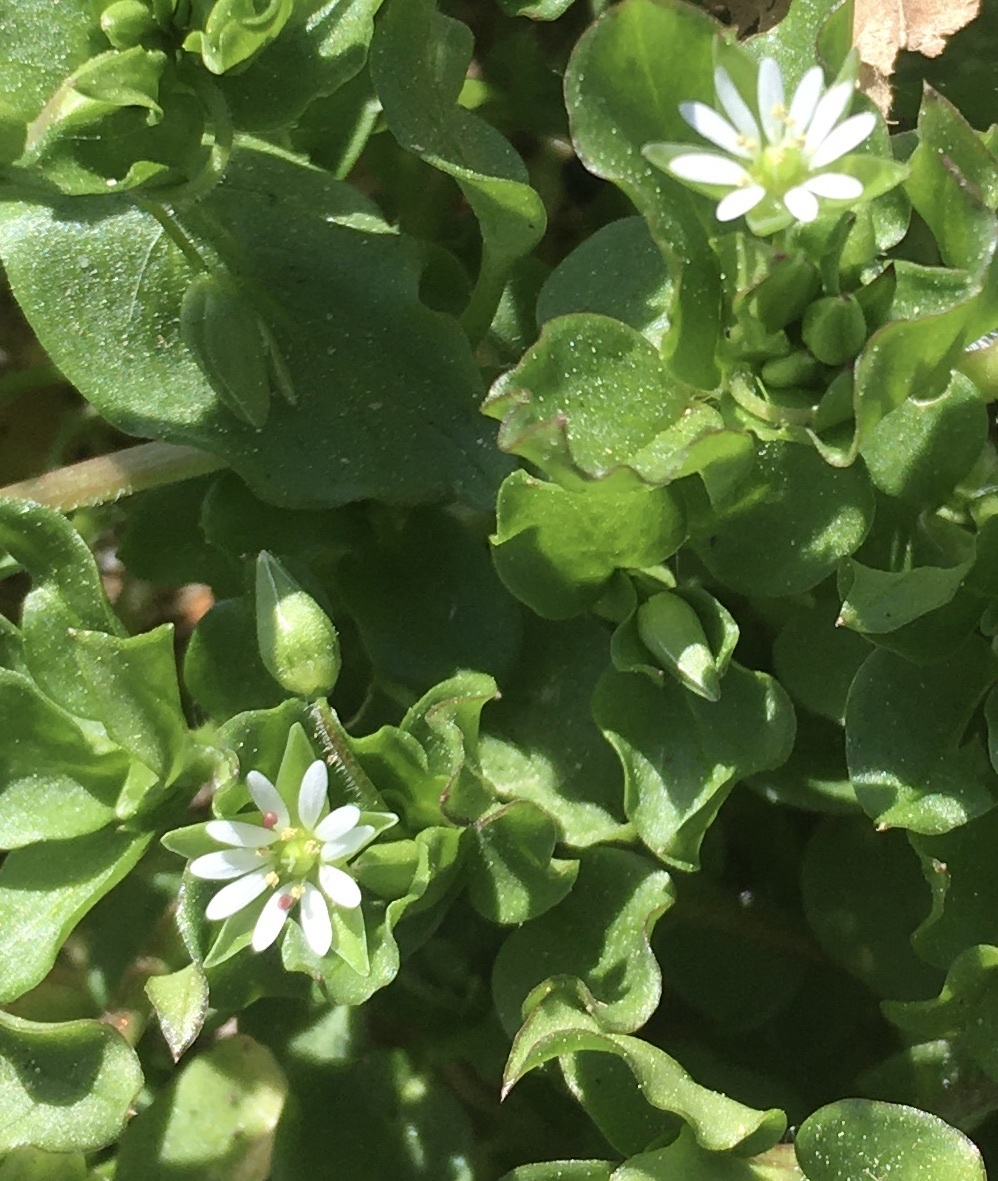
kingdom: Plantae
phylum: Tracheophyta
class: Magnoliopsida
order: Caryophyllales
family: Caryophyllaceae
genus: Stellaria
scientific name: Stellaria media
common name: Common chickweed
